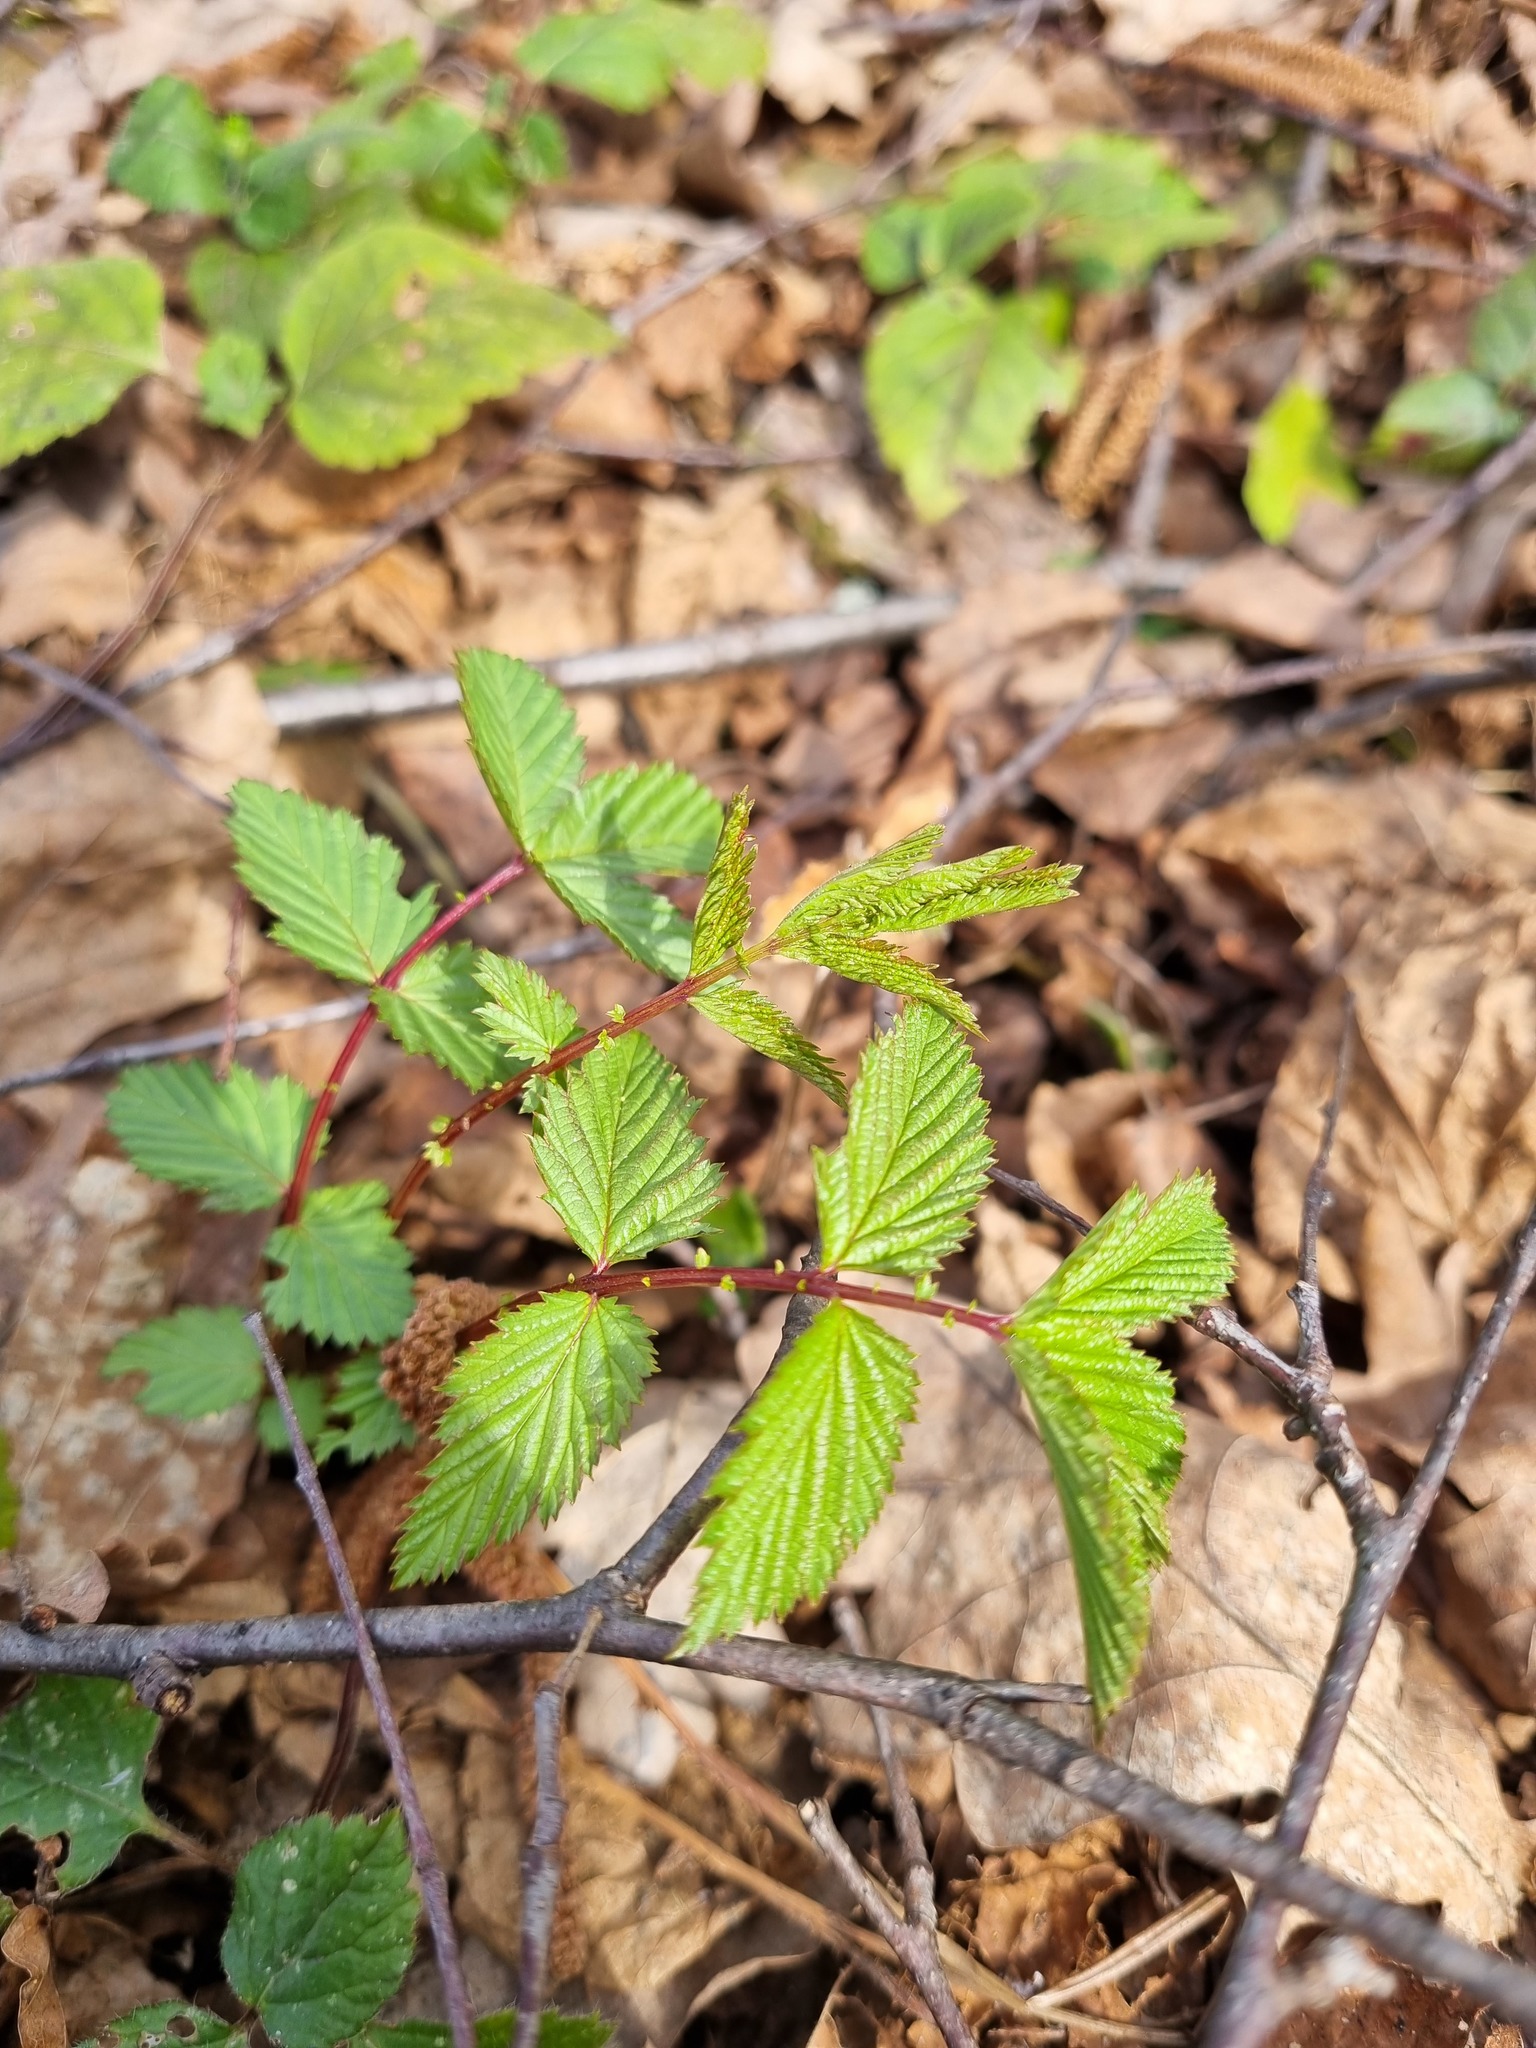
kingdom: Plantae
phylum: Tracheophyta
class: Magnoliopsida
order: Rosales
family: Rosaceae
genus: Filipendula
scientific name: Filipendula ulmaria
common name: Meadowsweet
